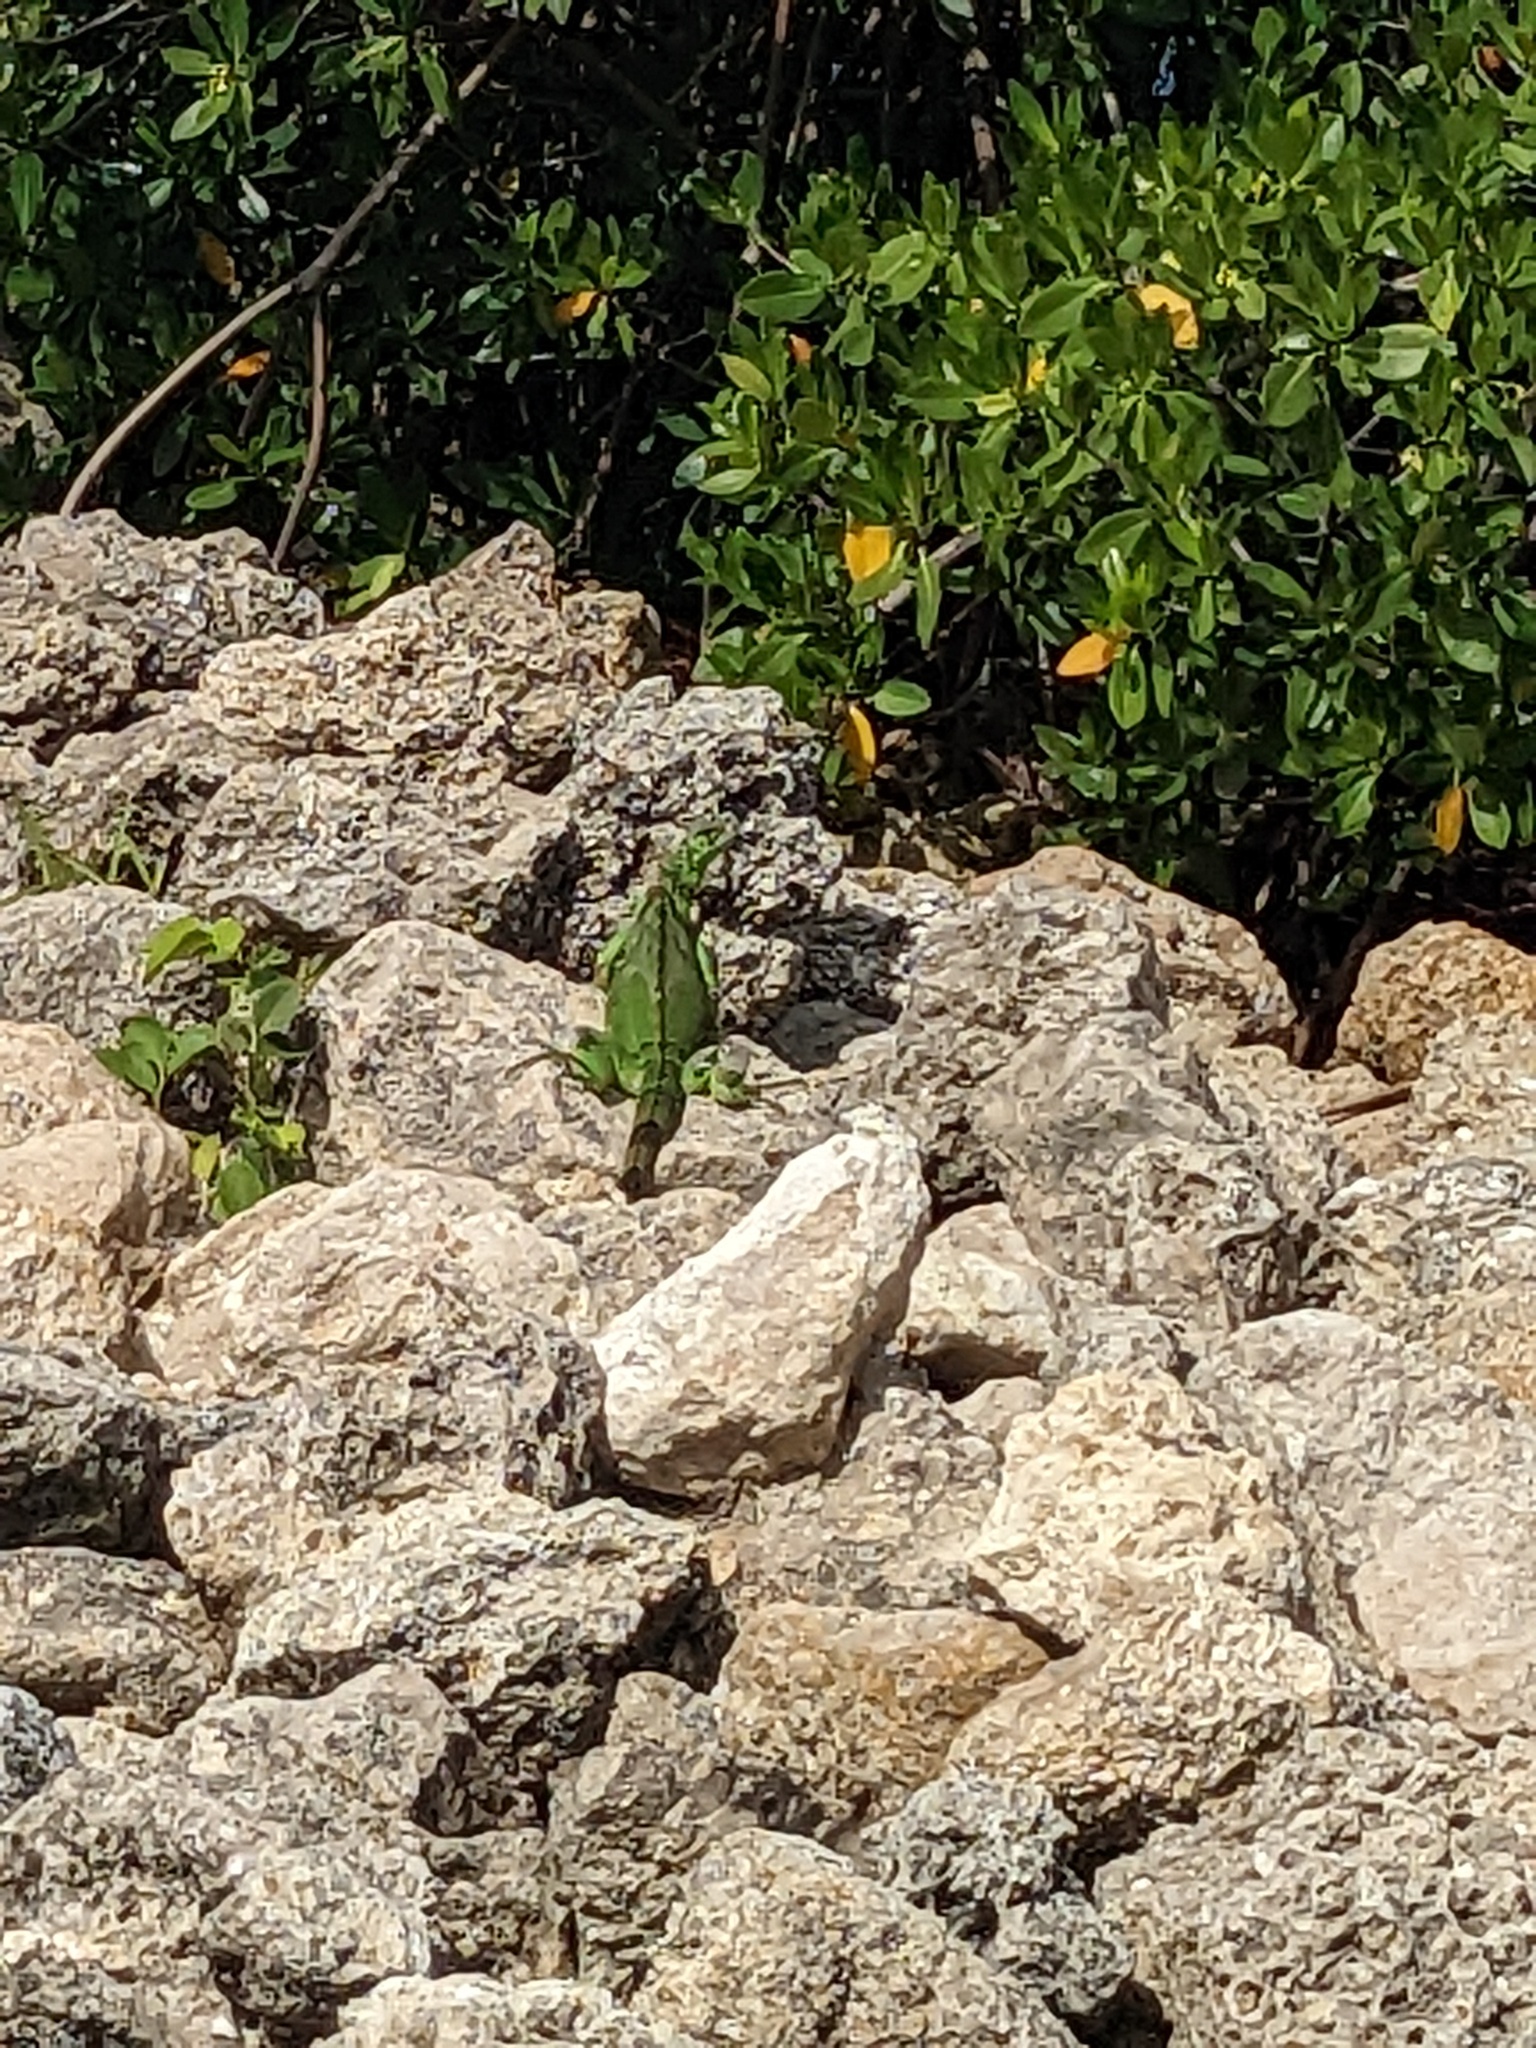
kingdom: Animalia
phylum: Chordata
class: Squamata
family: Iguanidae
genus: Iguana
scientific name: Iguana iguana
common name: Green iguana
